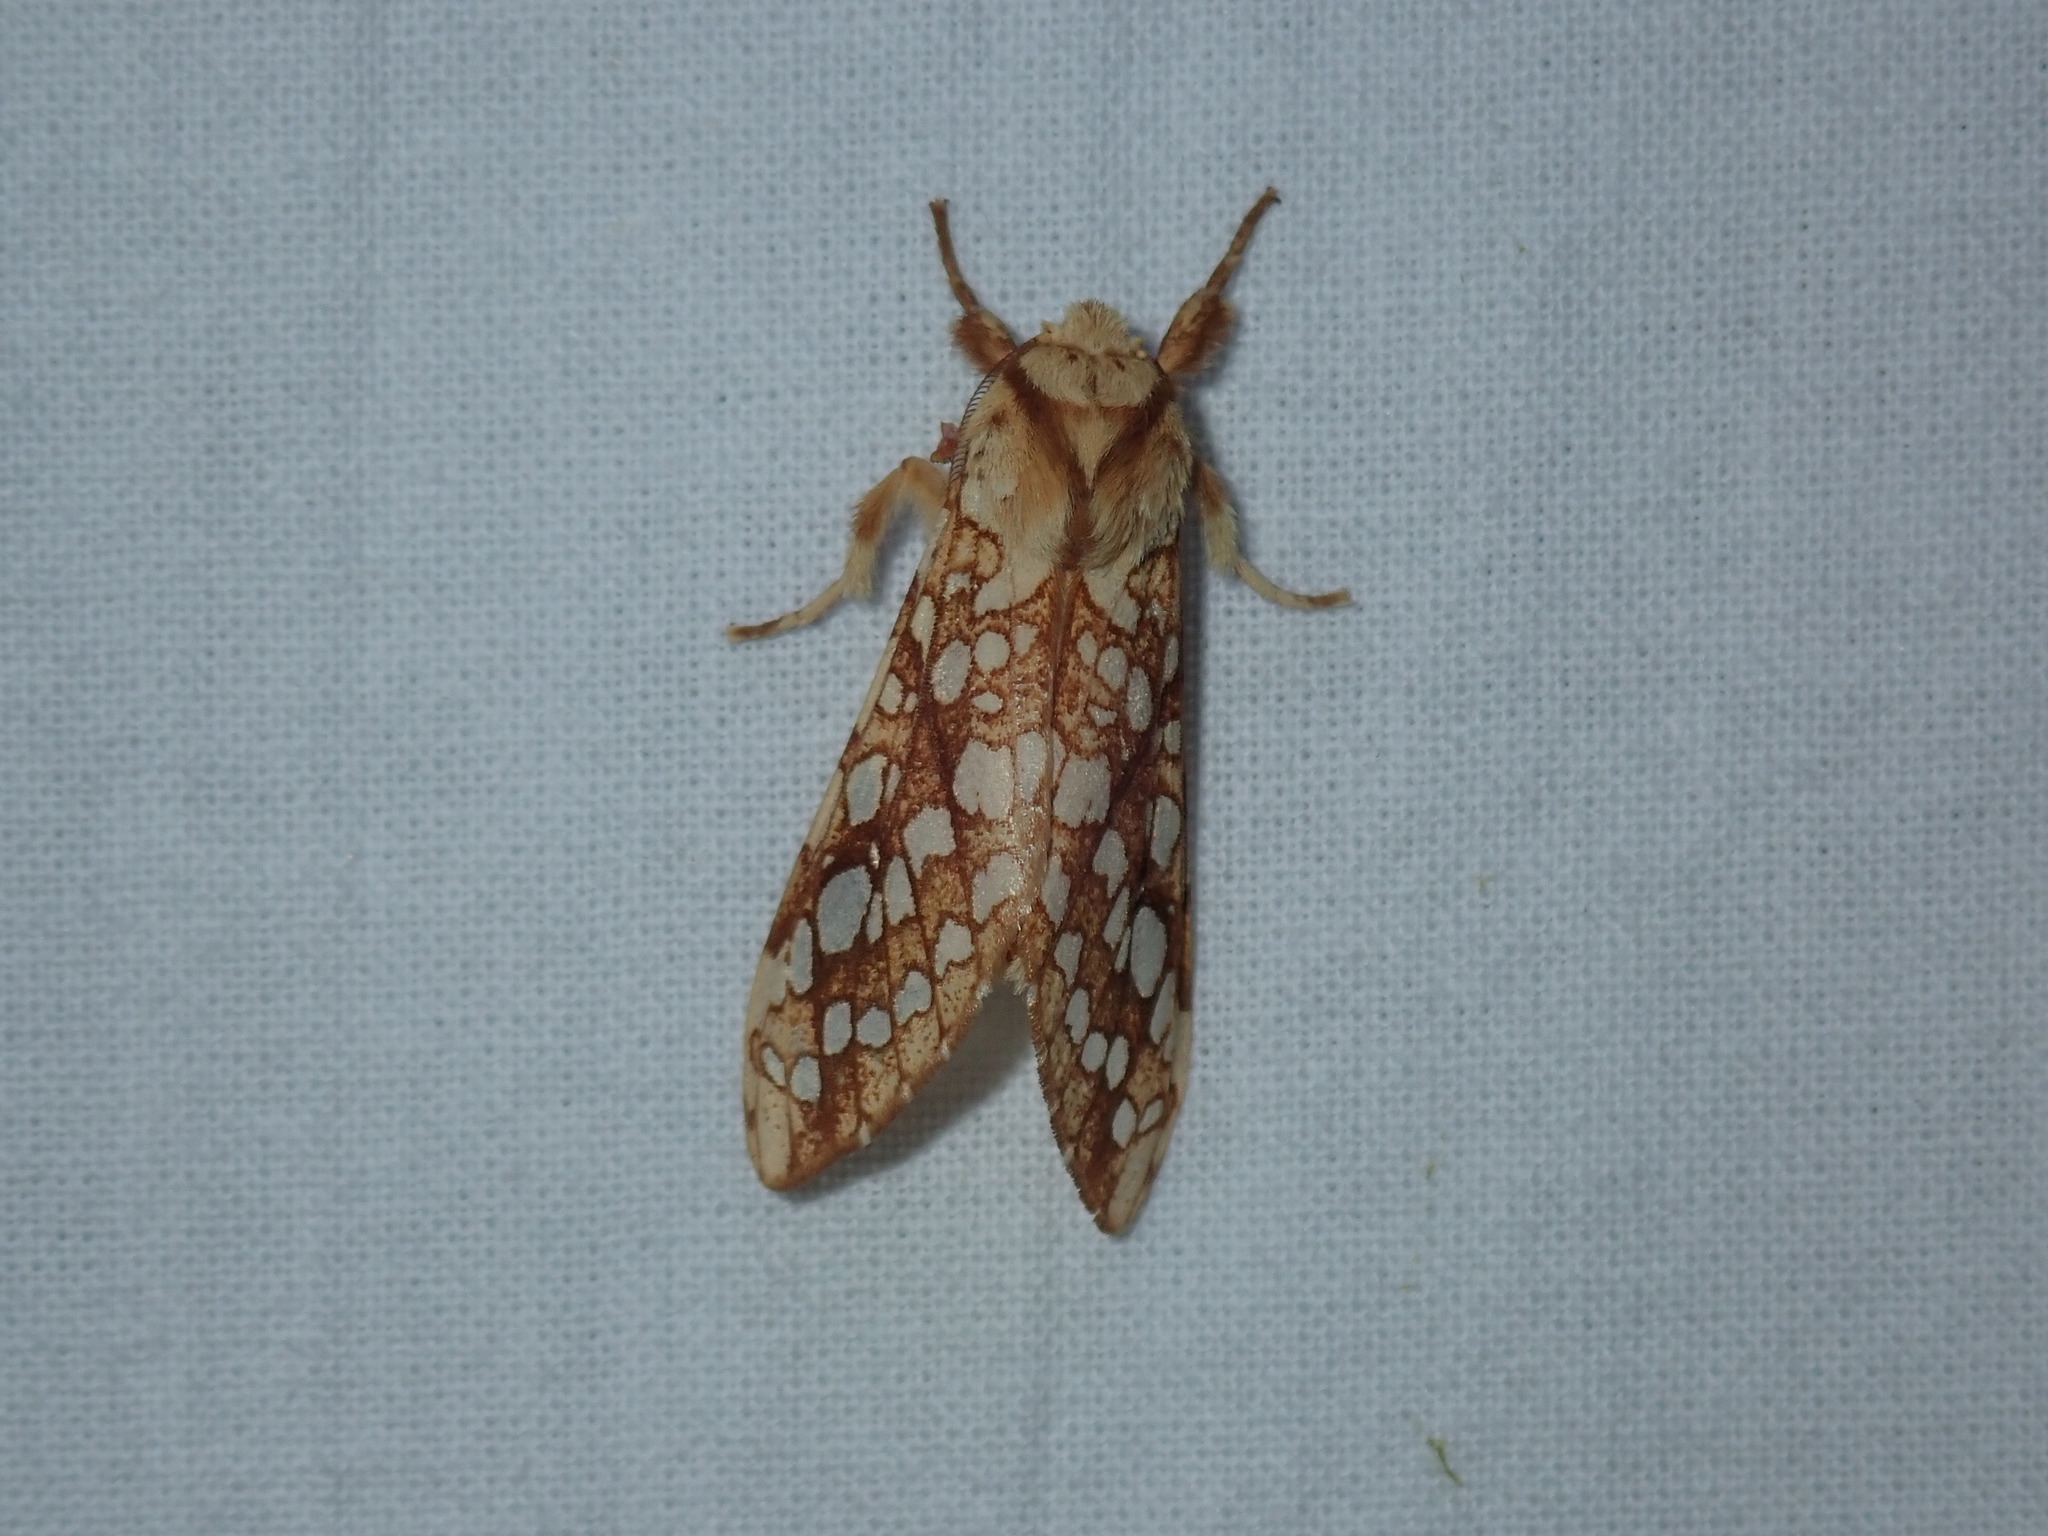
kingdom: Animalia
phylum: Arthropoda
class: Insecta
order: Lepidoptera
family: Erebidae
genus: Lophocampa
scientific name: Lophocampa caryae
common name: Hickory tussock moth
